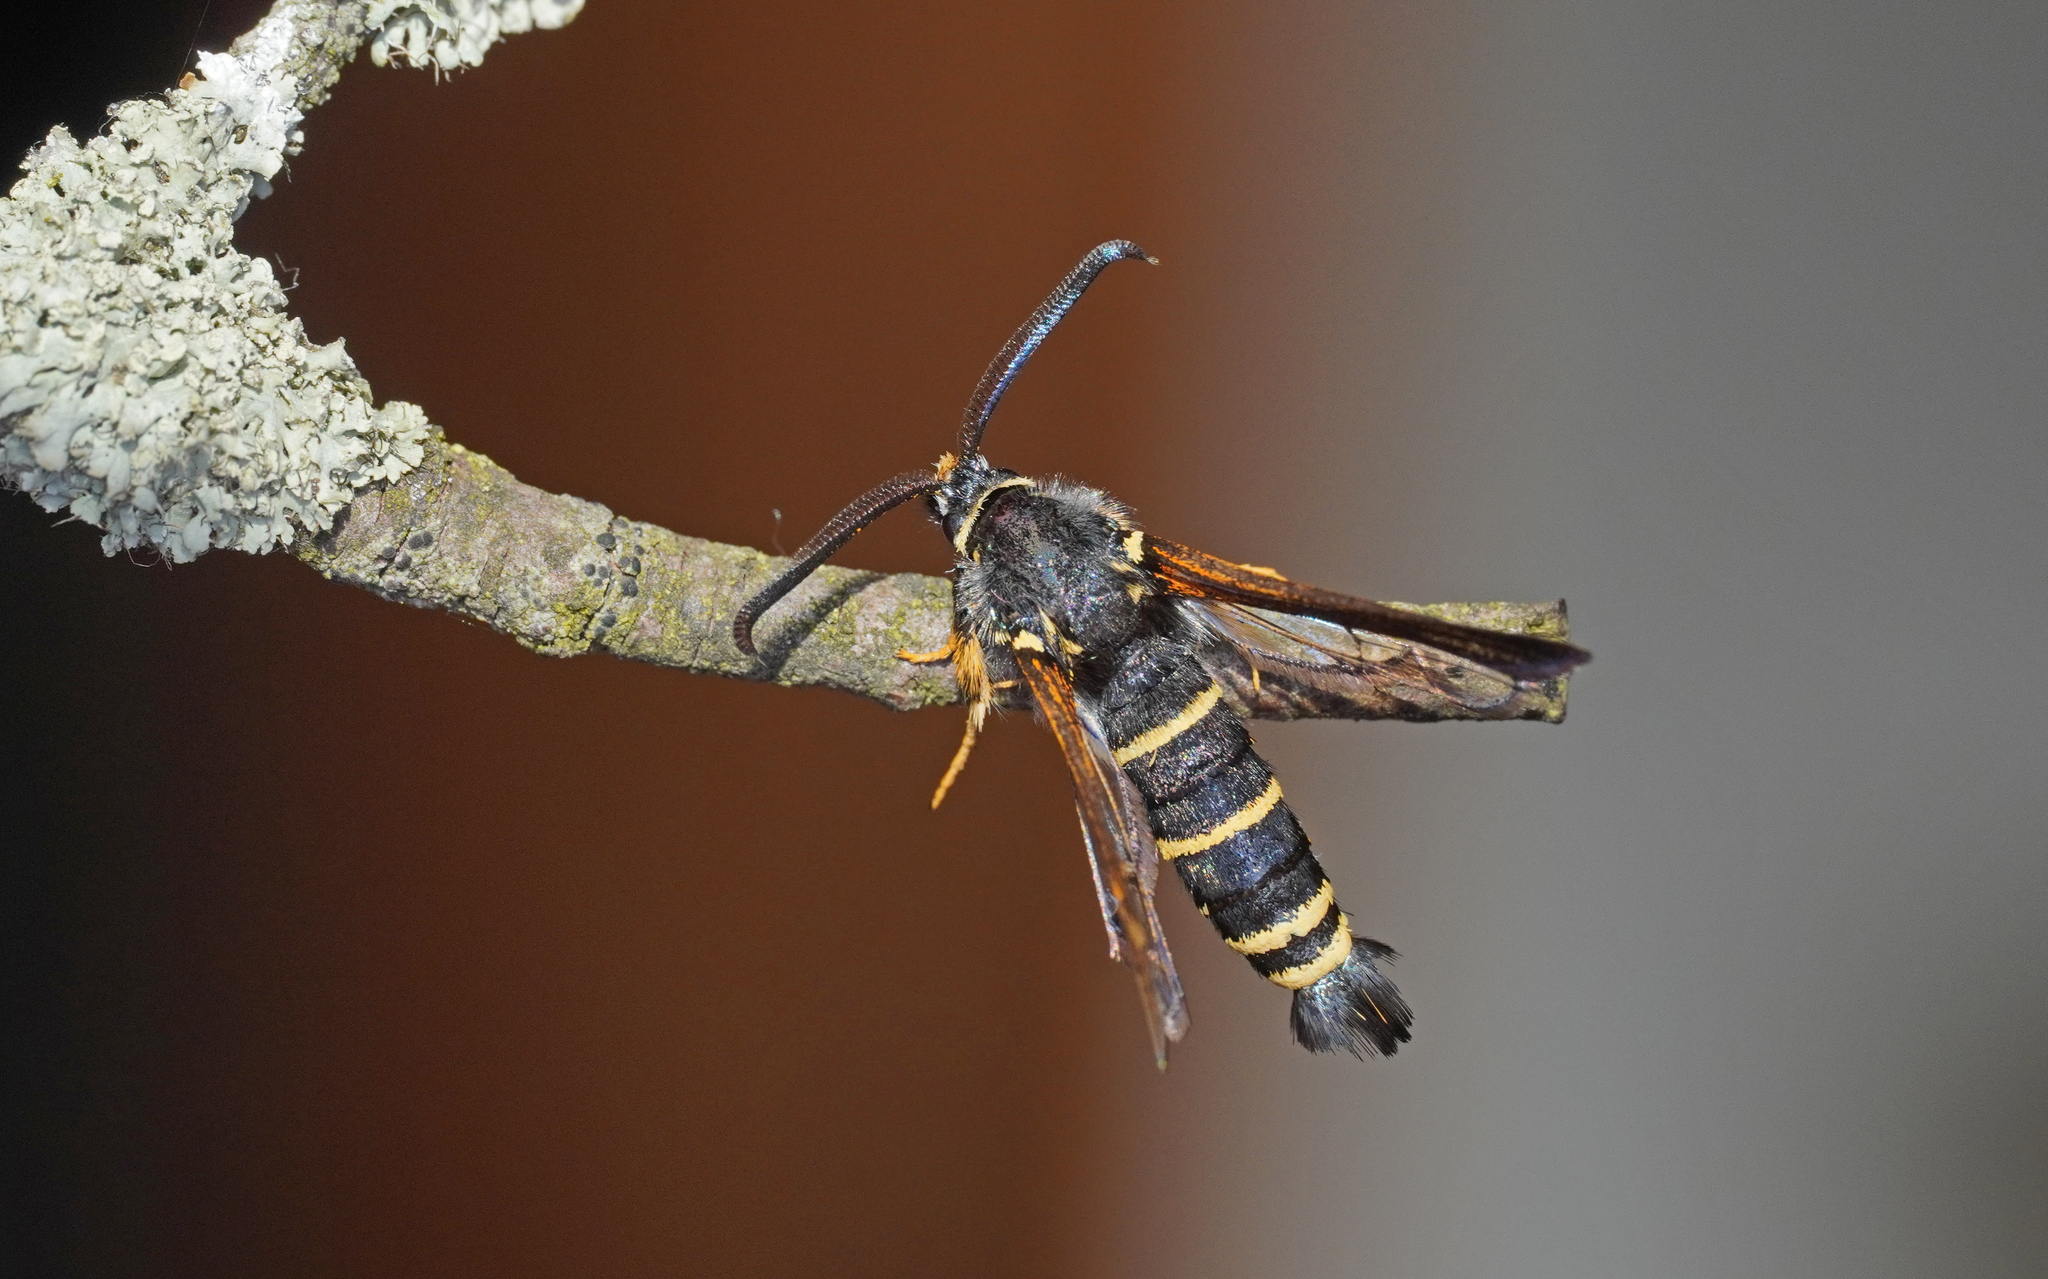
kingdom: Animalia
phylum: Arthropoda
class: Insecta
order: Lepidoptera
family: Sesiidae
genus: Paranthrene
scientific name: Paranthrene tabaniformis
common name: Dusky clearwing
